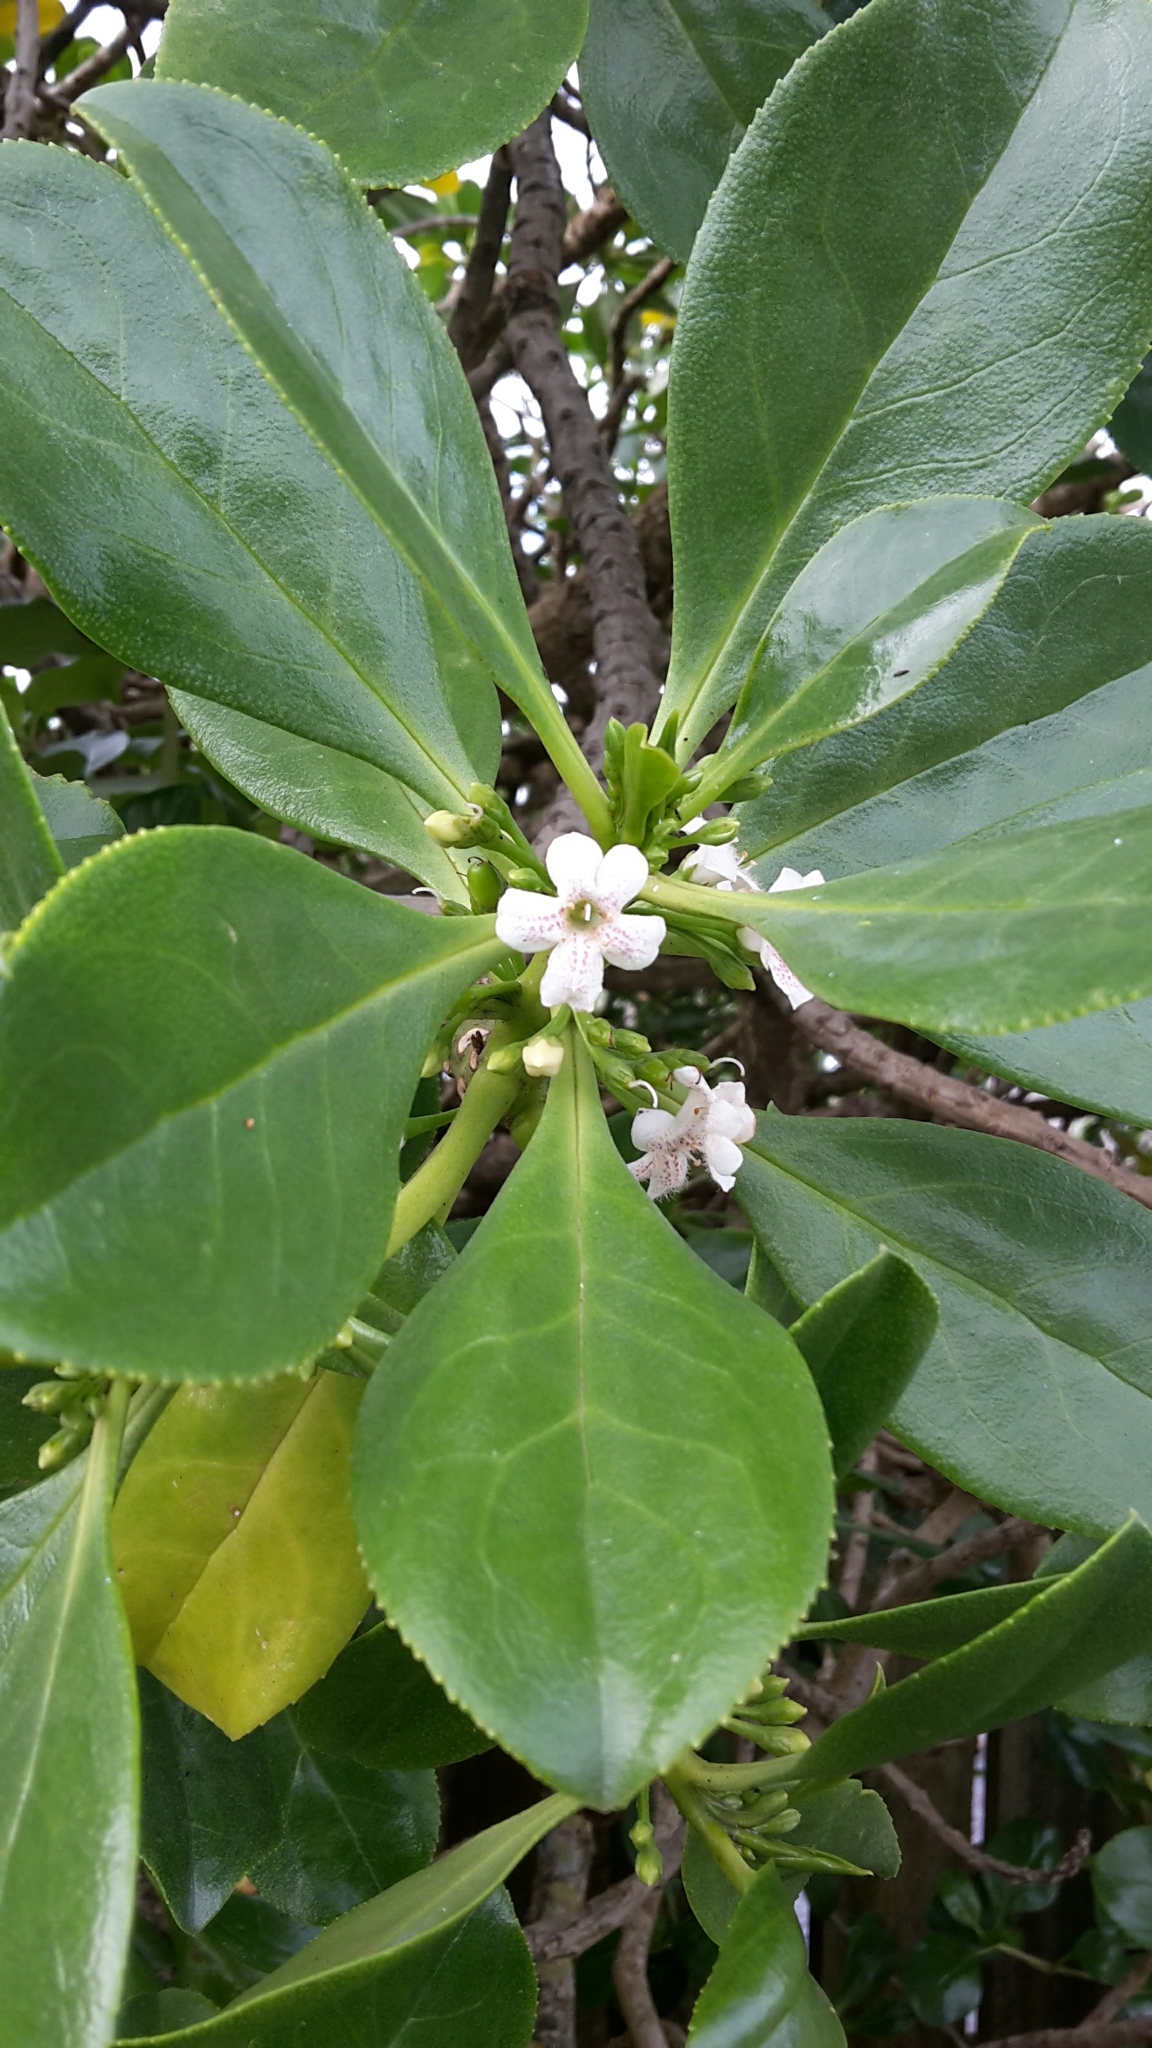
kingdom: Plantae
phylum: Tracheophyta
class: Magnoliopsida
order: Lamiales
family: Scrophulariaceae
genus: Myoporum
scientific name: Myoporum insulare
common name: Common boobialla
